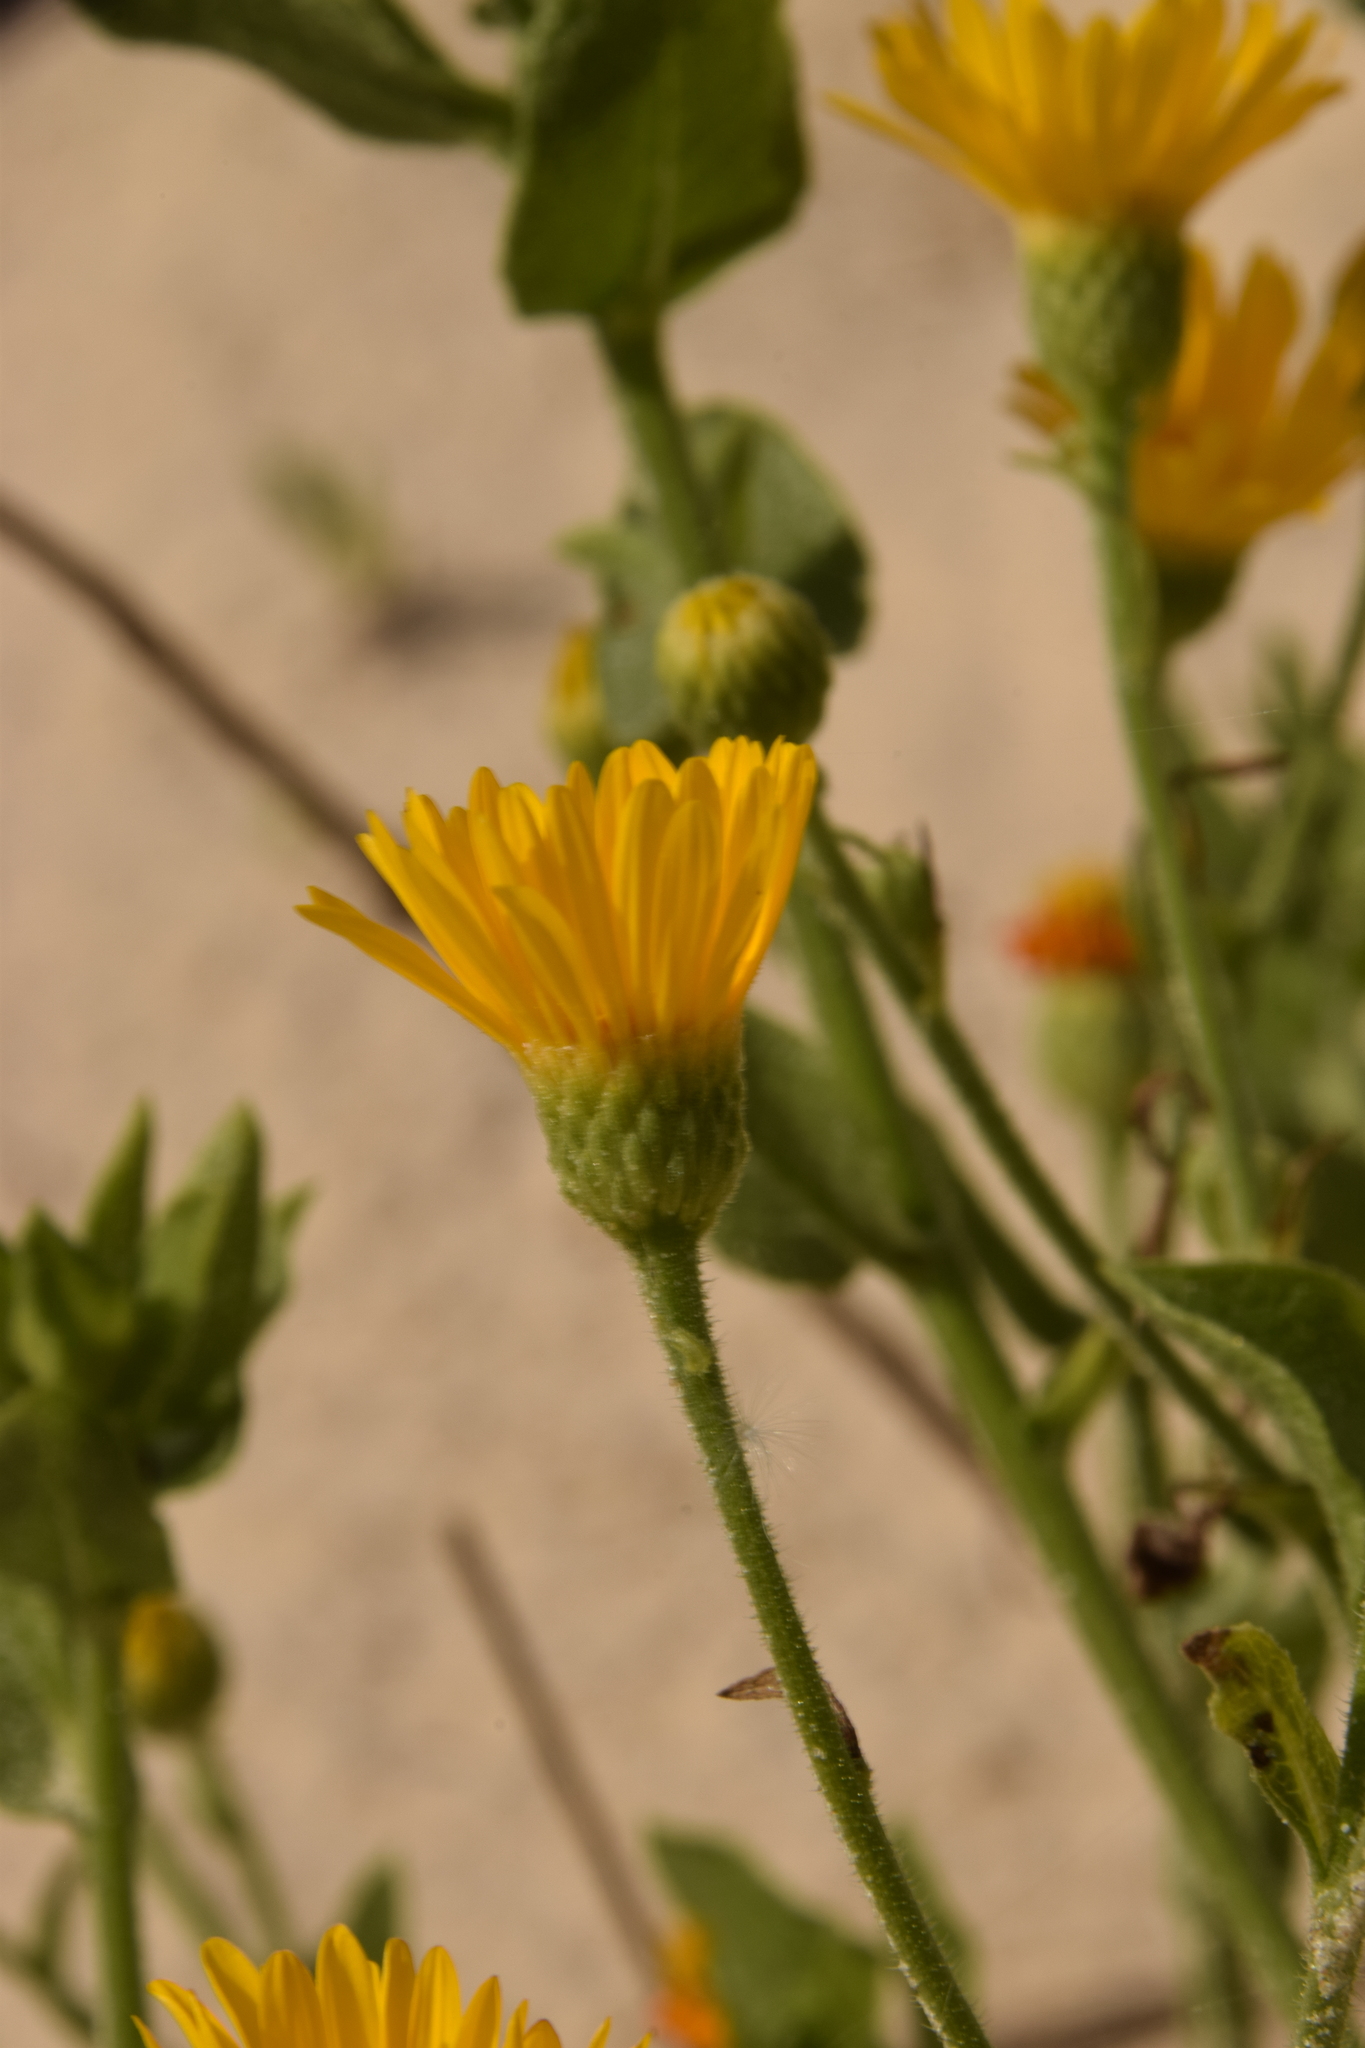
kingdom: Plantae
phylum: Tracheophyta
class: Magnoliopsida
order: Asterales
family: Asteraceae
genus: Heterotheca
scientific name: Heterotheca subaxillaris
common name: Camphorweed
